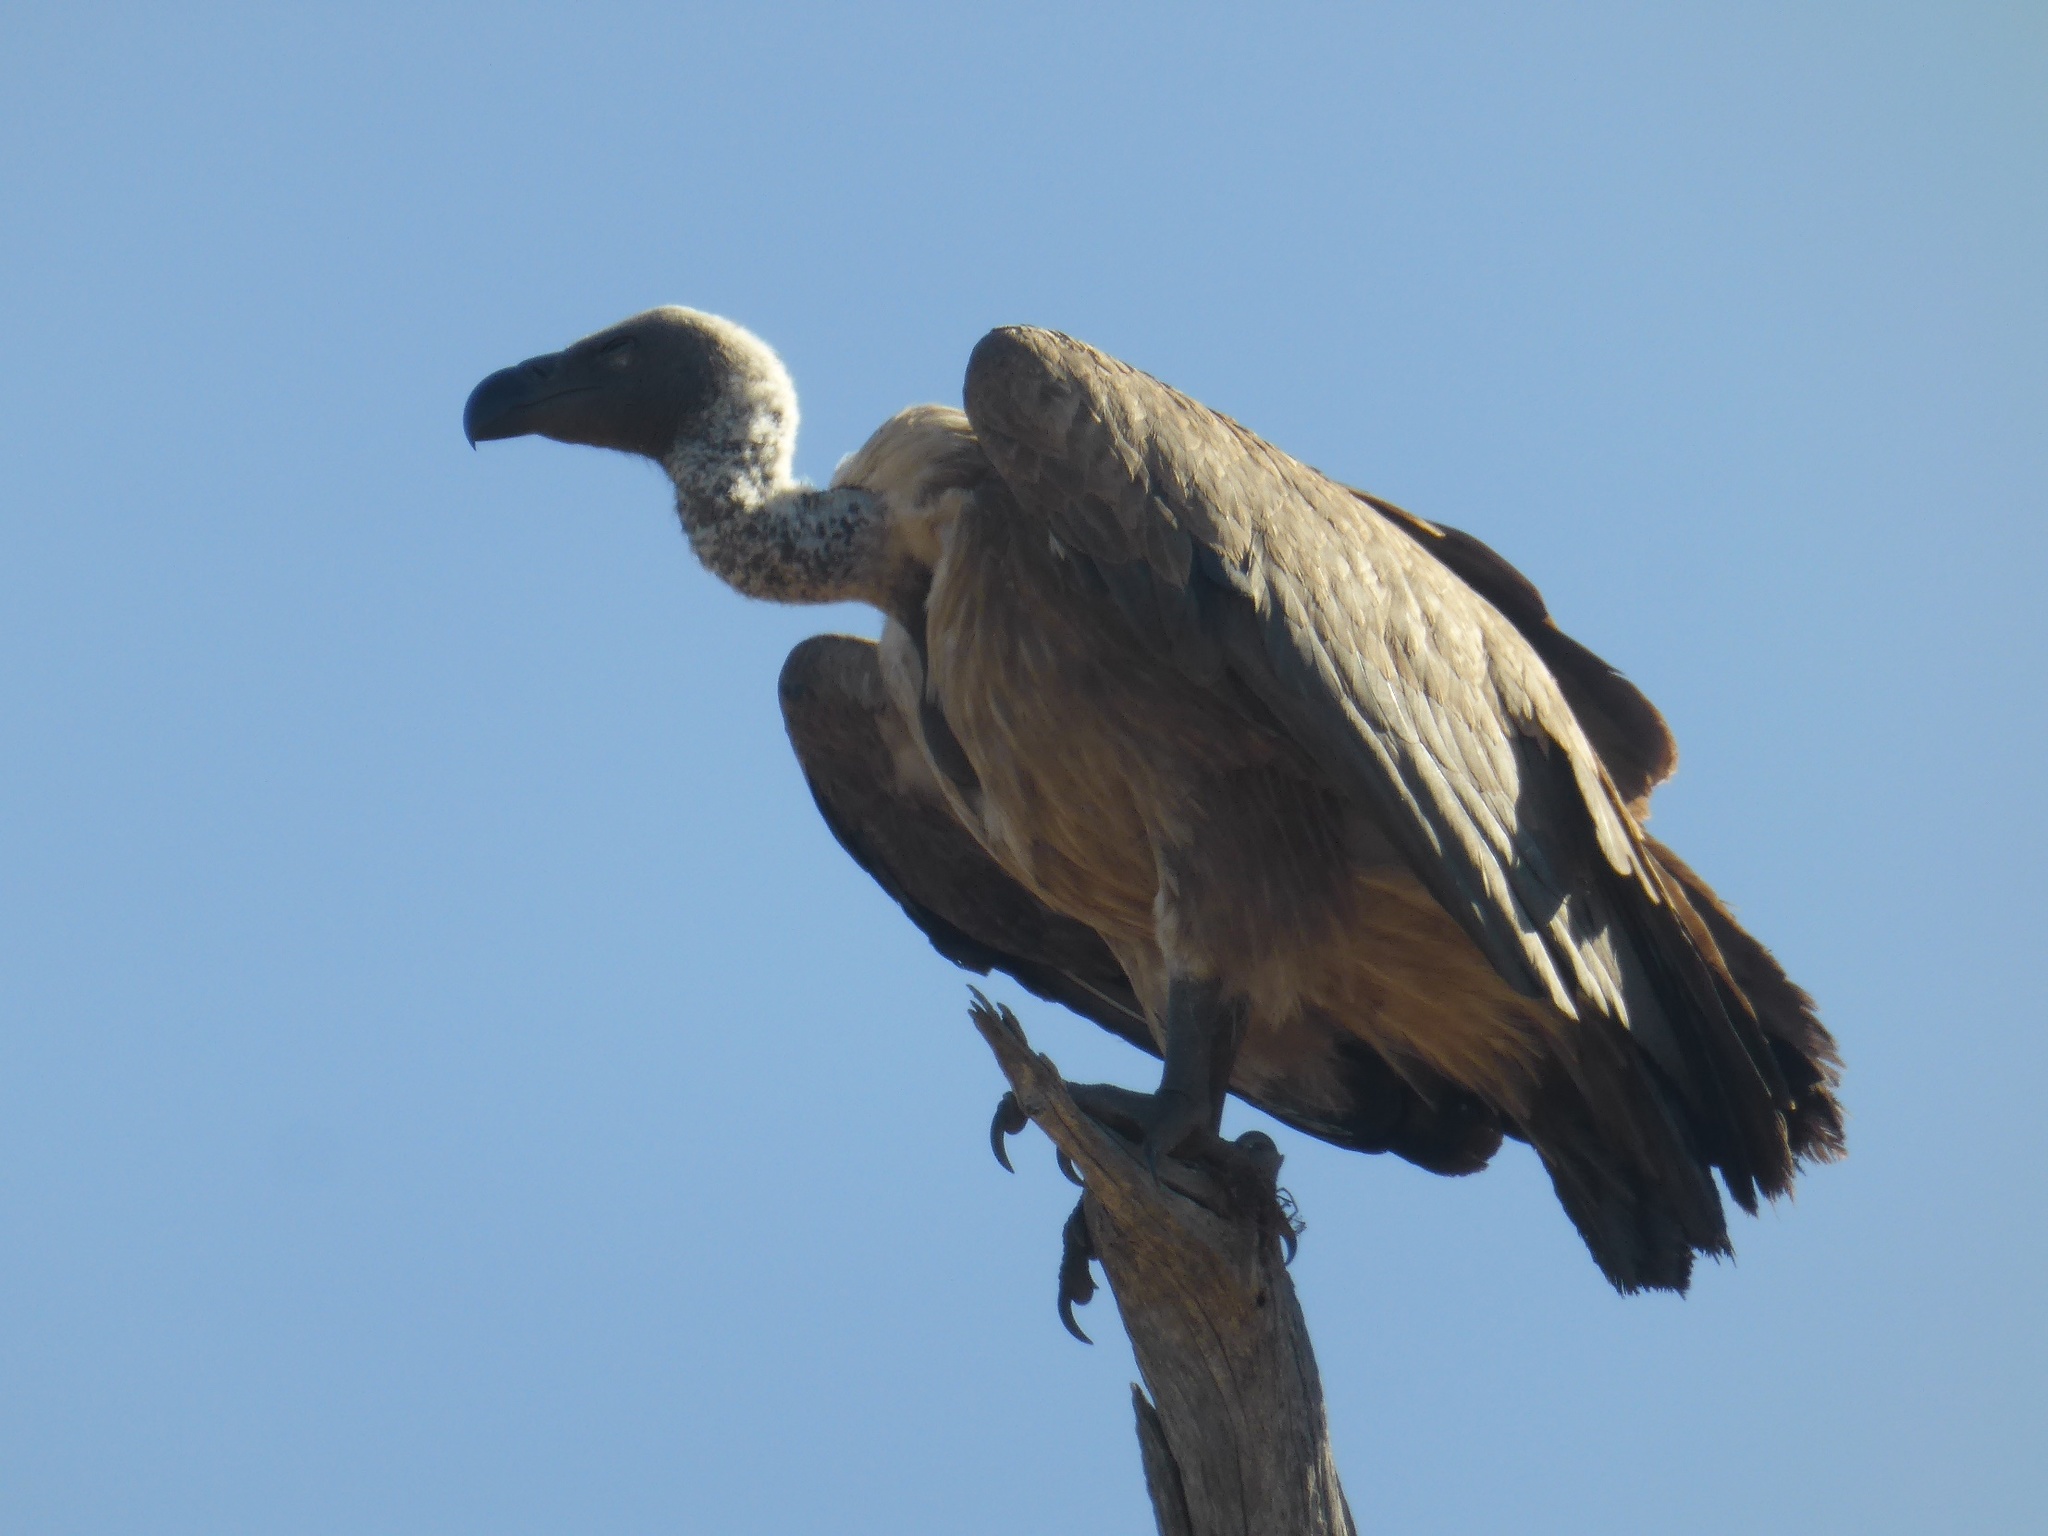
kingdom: Animalia
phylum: Chordata
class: Aves
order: Accipitriformes
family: Accipitridae
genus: Gyps
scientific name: Gyps africanus
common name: White-backed vulture
